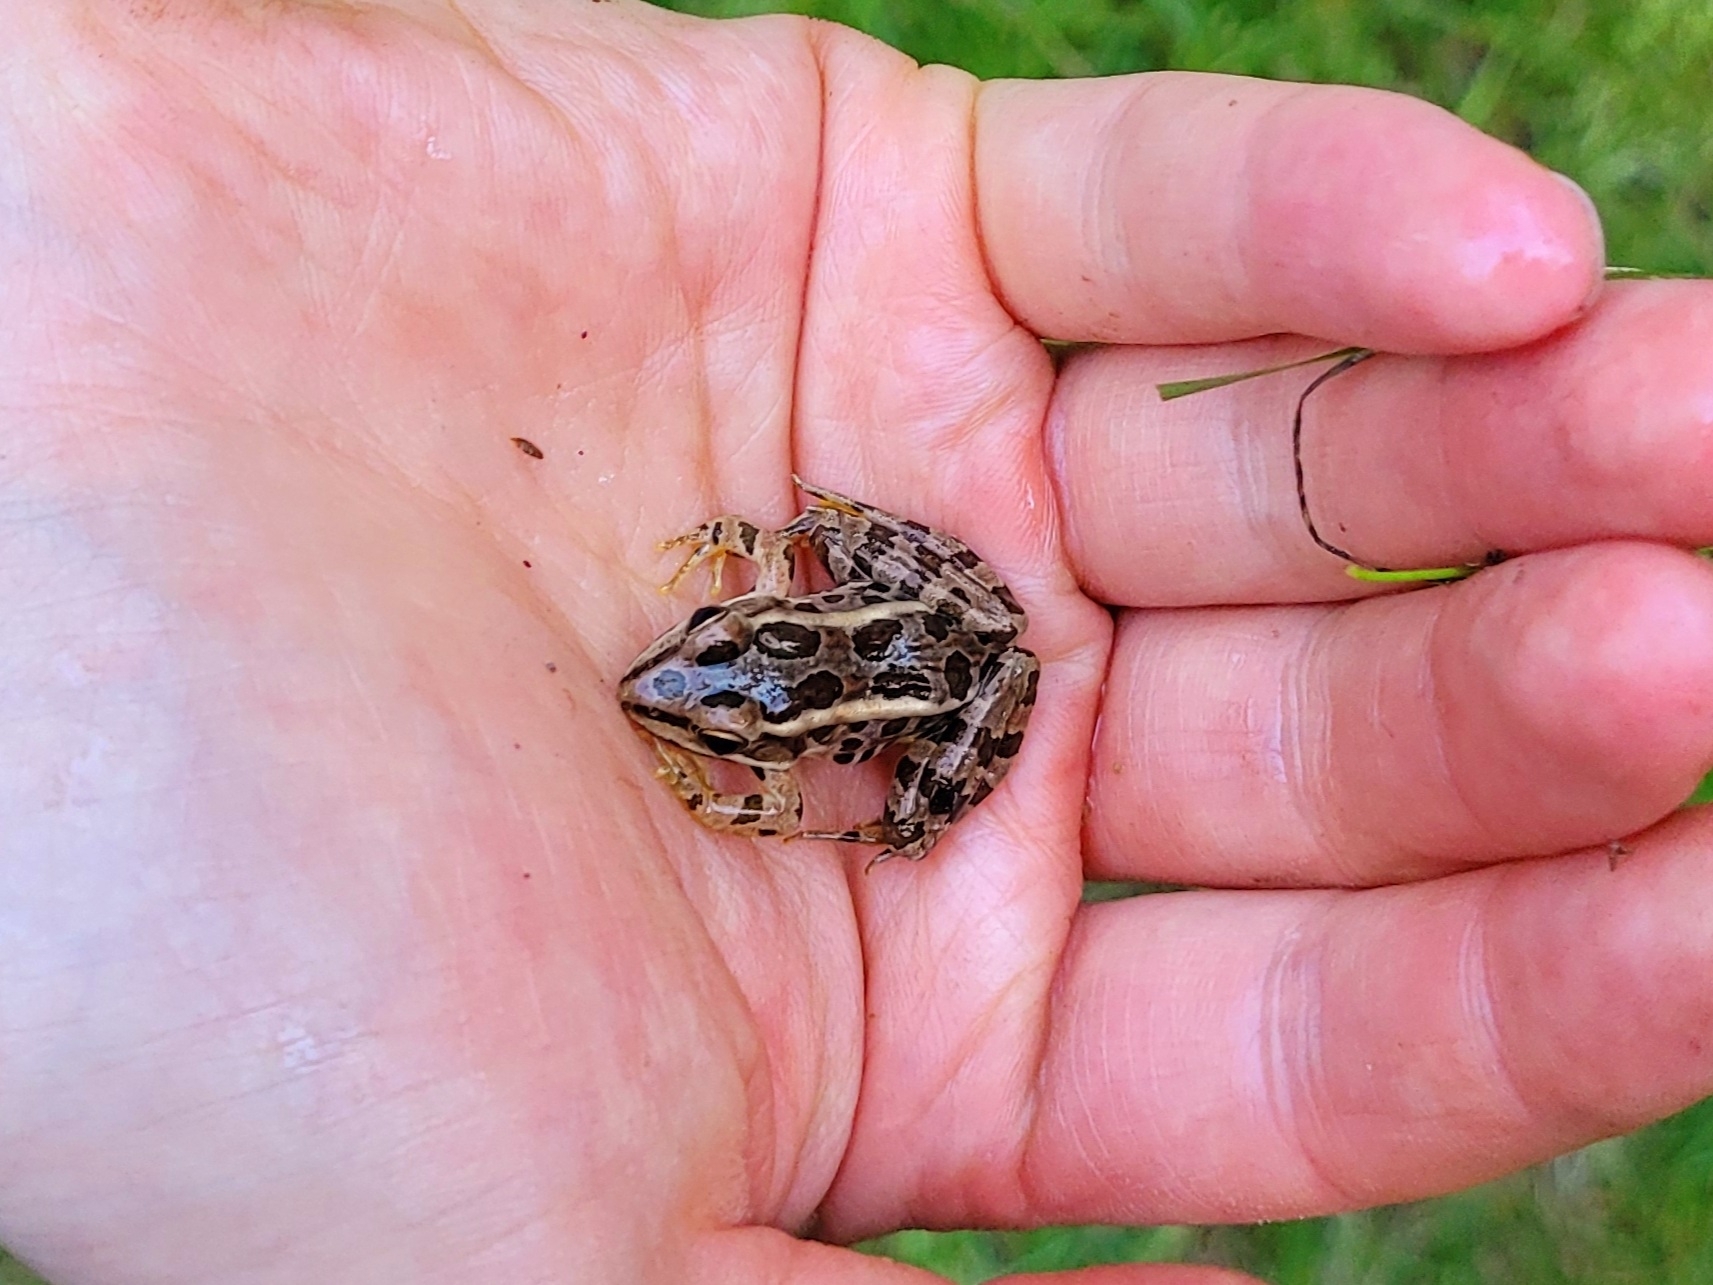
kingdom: Animalia
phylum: Chordata
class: Amphibia
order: Anura
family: Ranidae
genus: Lithobates
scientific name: Lithobates palustris
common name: Pickerel frog
